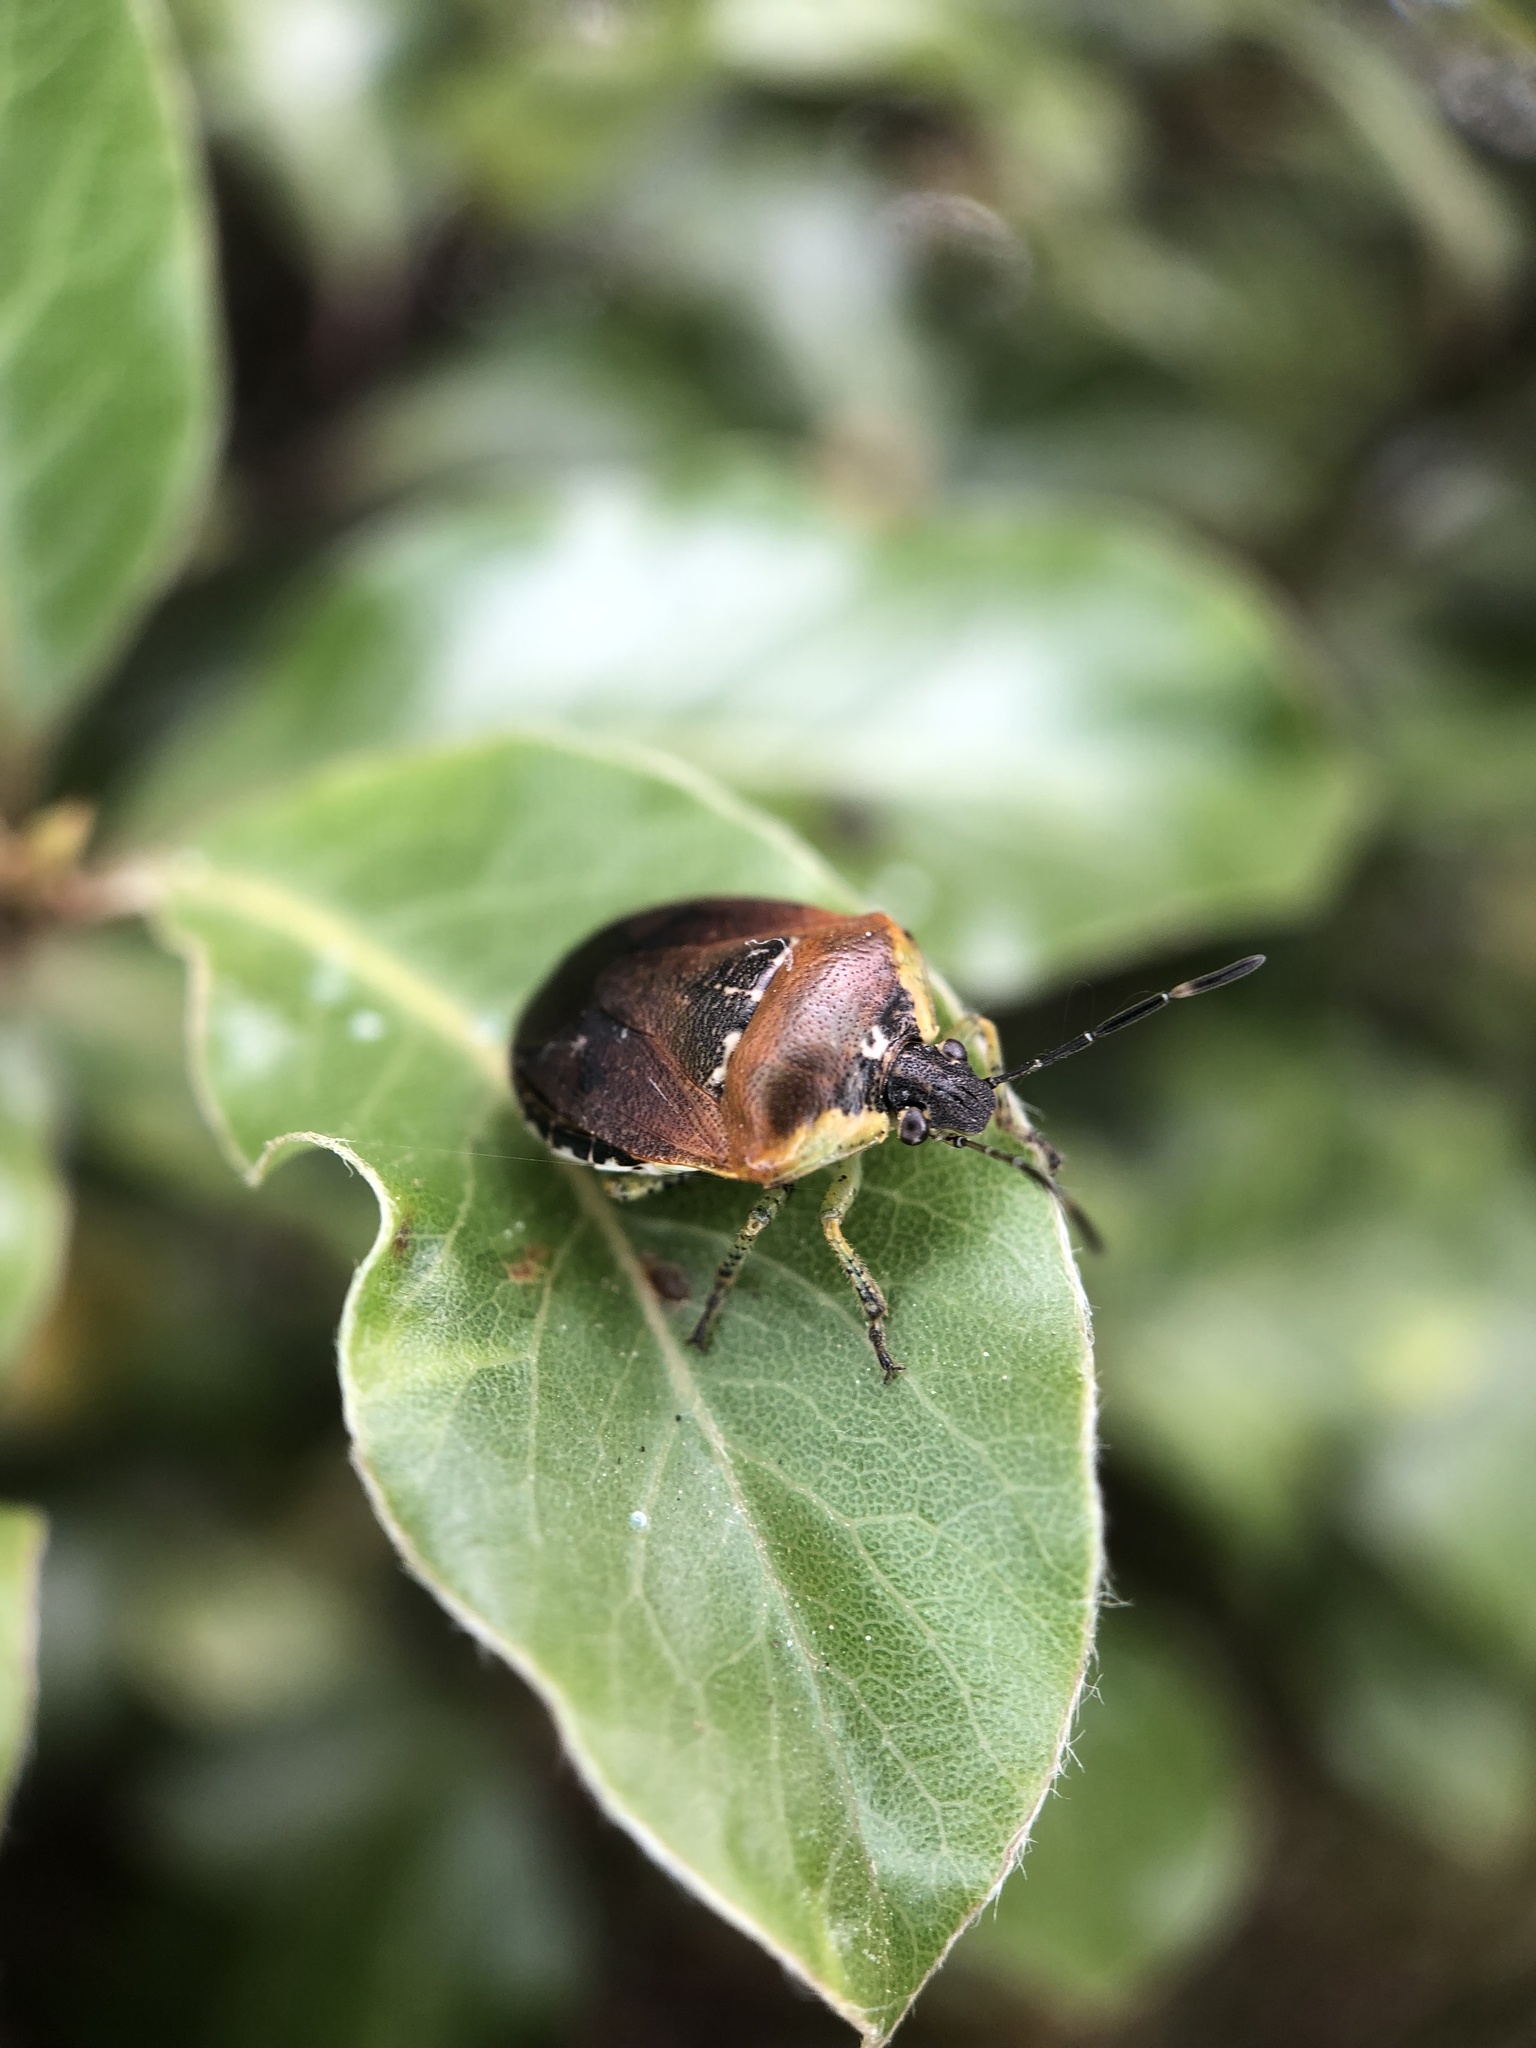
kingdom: Animalia
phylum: Arthropoda
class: Insecta
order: Hemiptera
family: Pentatomidae
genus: Monteithiella
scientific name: Monteithiella
